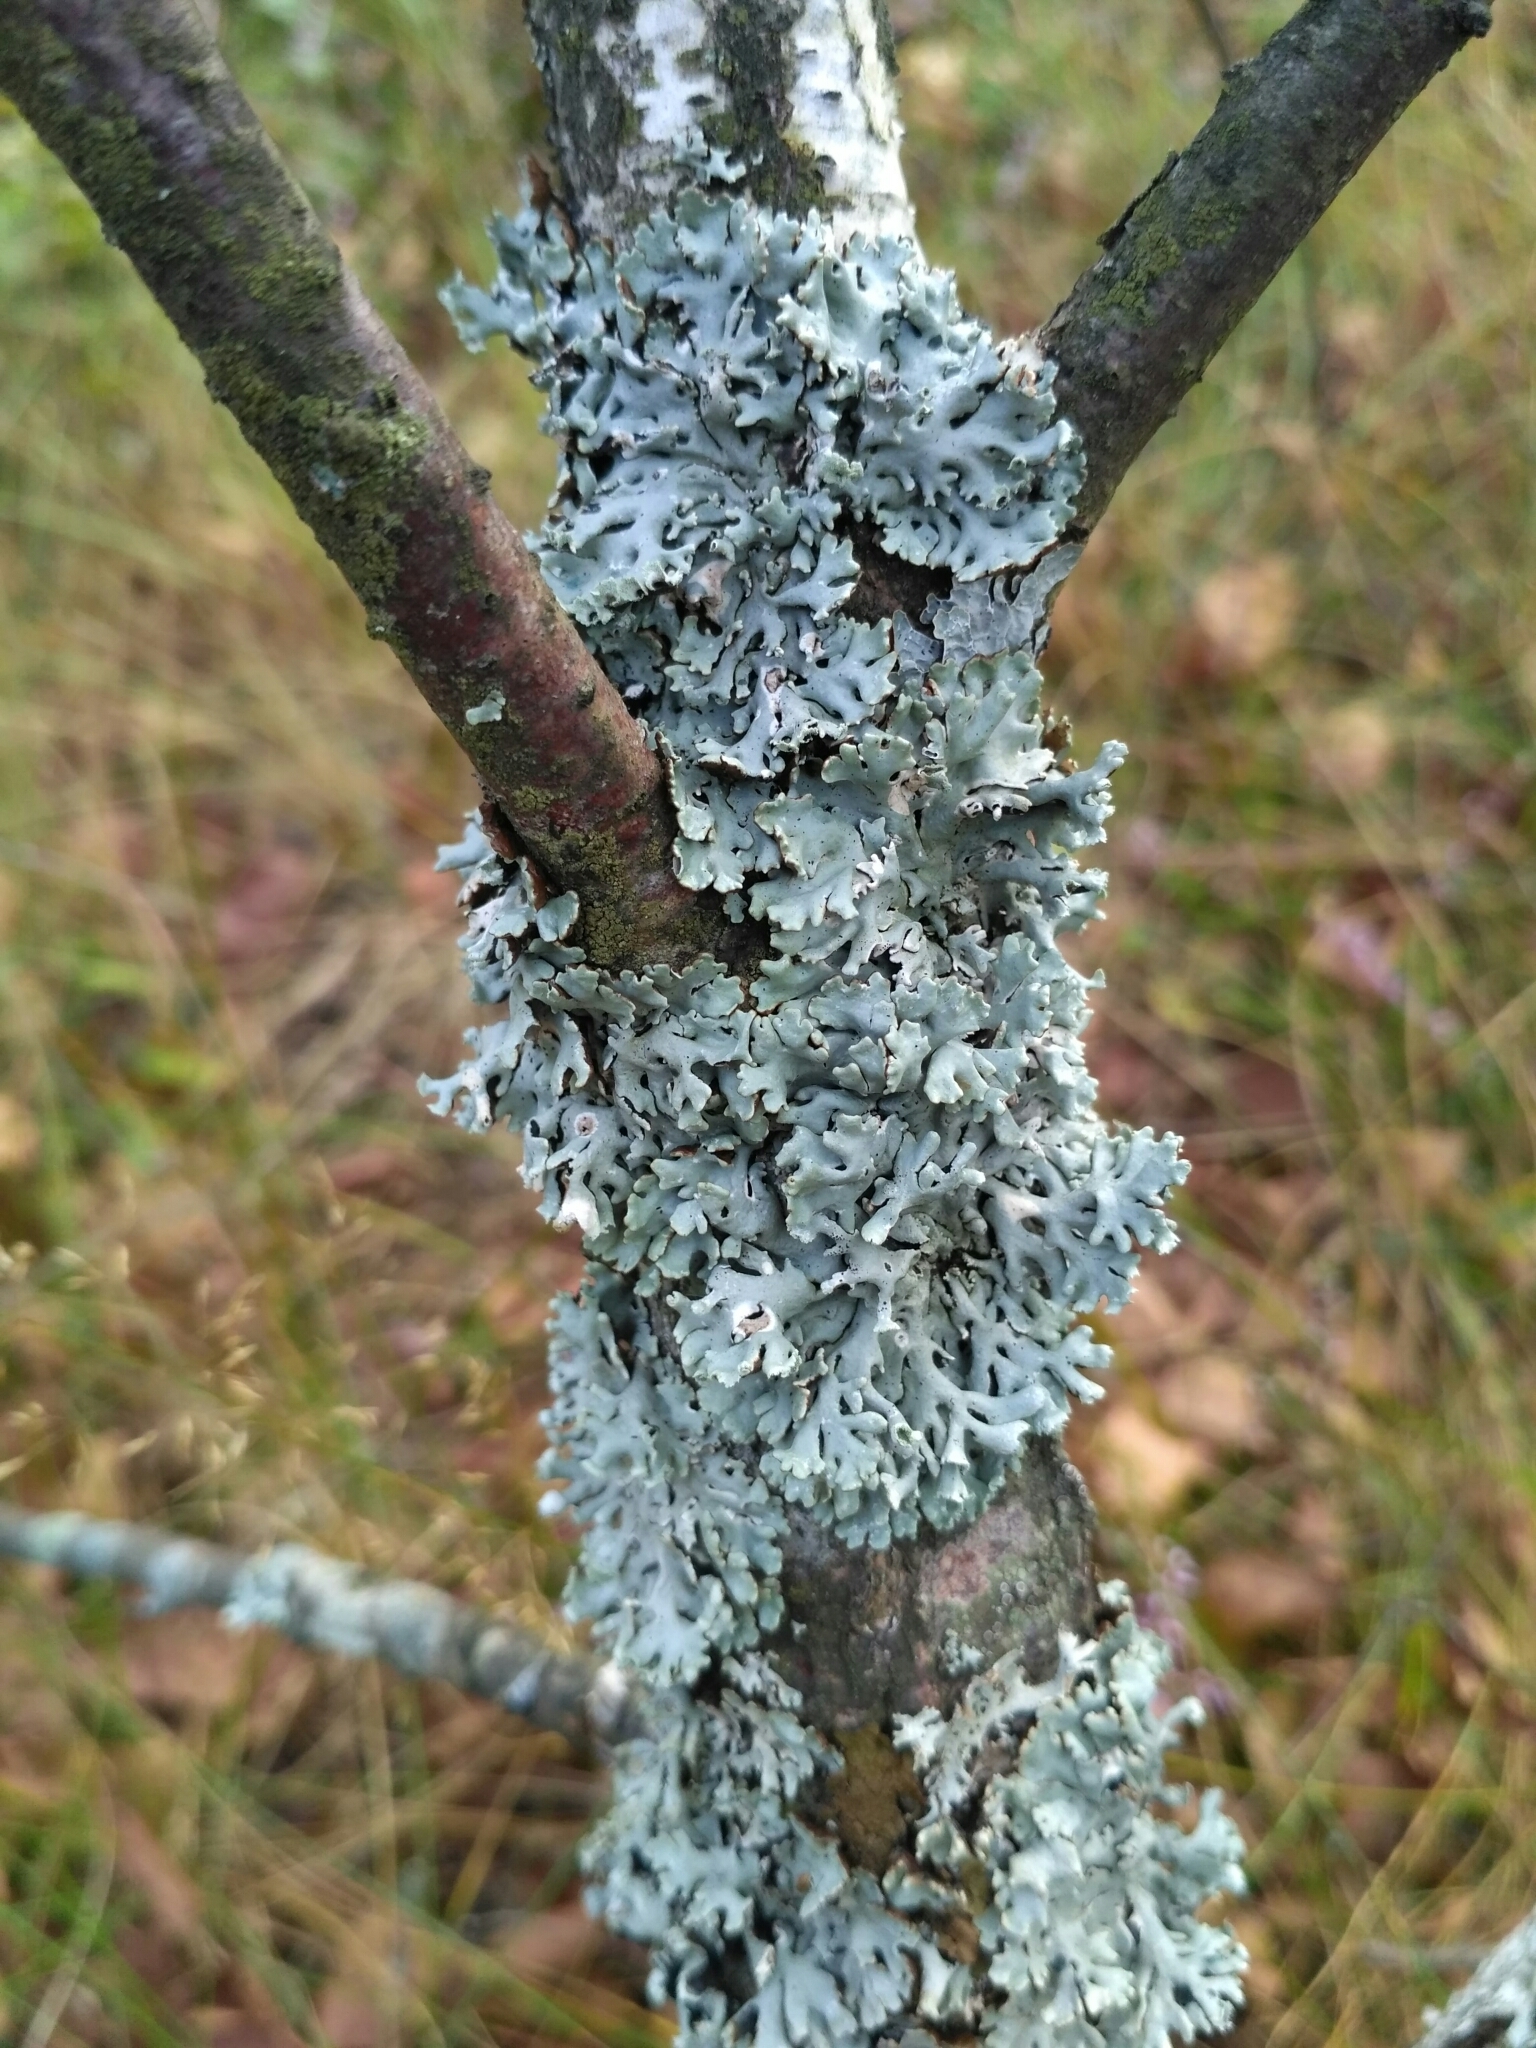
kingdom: Fungi
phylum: Ascomycota
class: Lecanoromycetes
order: Lecanorales
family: Parmeliaceae
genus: Hypogymnia
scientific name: Hypogymnia physodes
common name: Dark crottle
